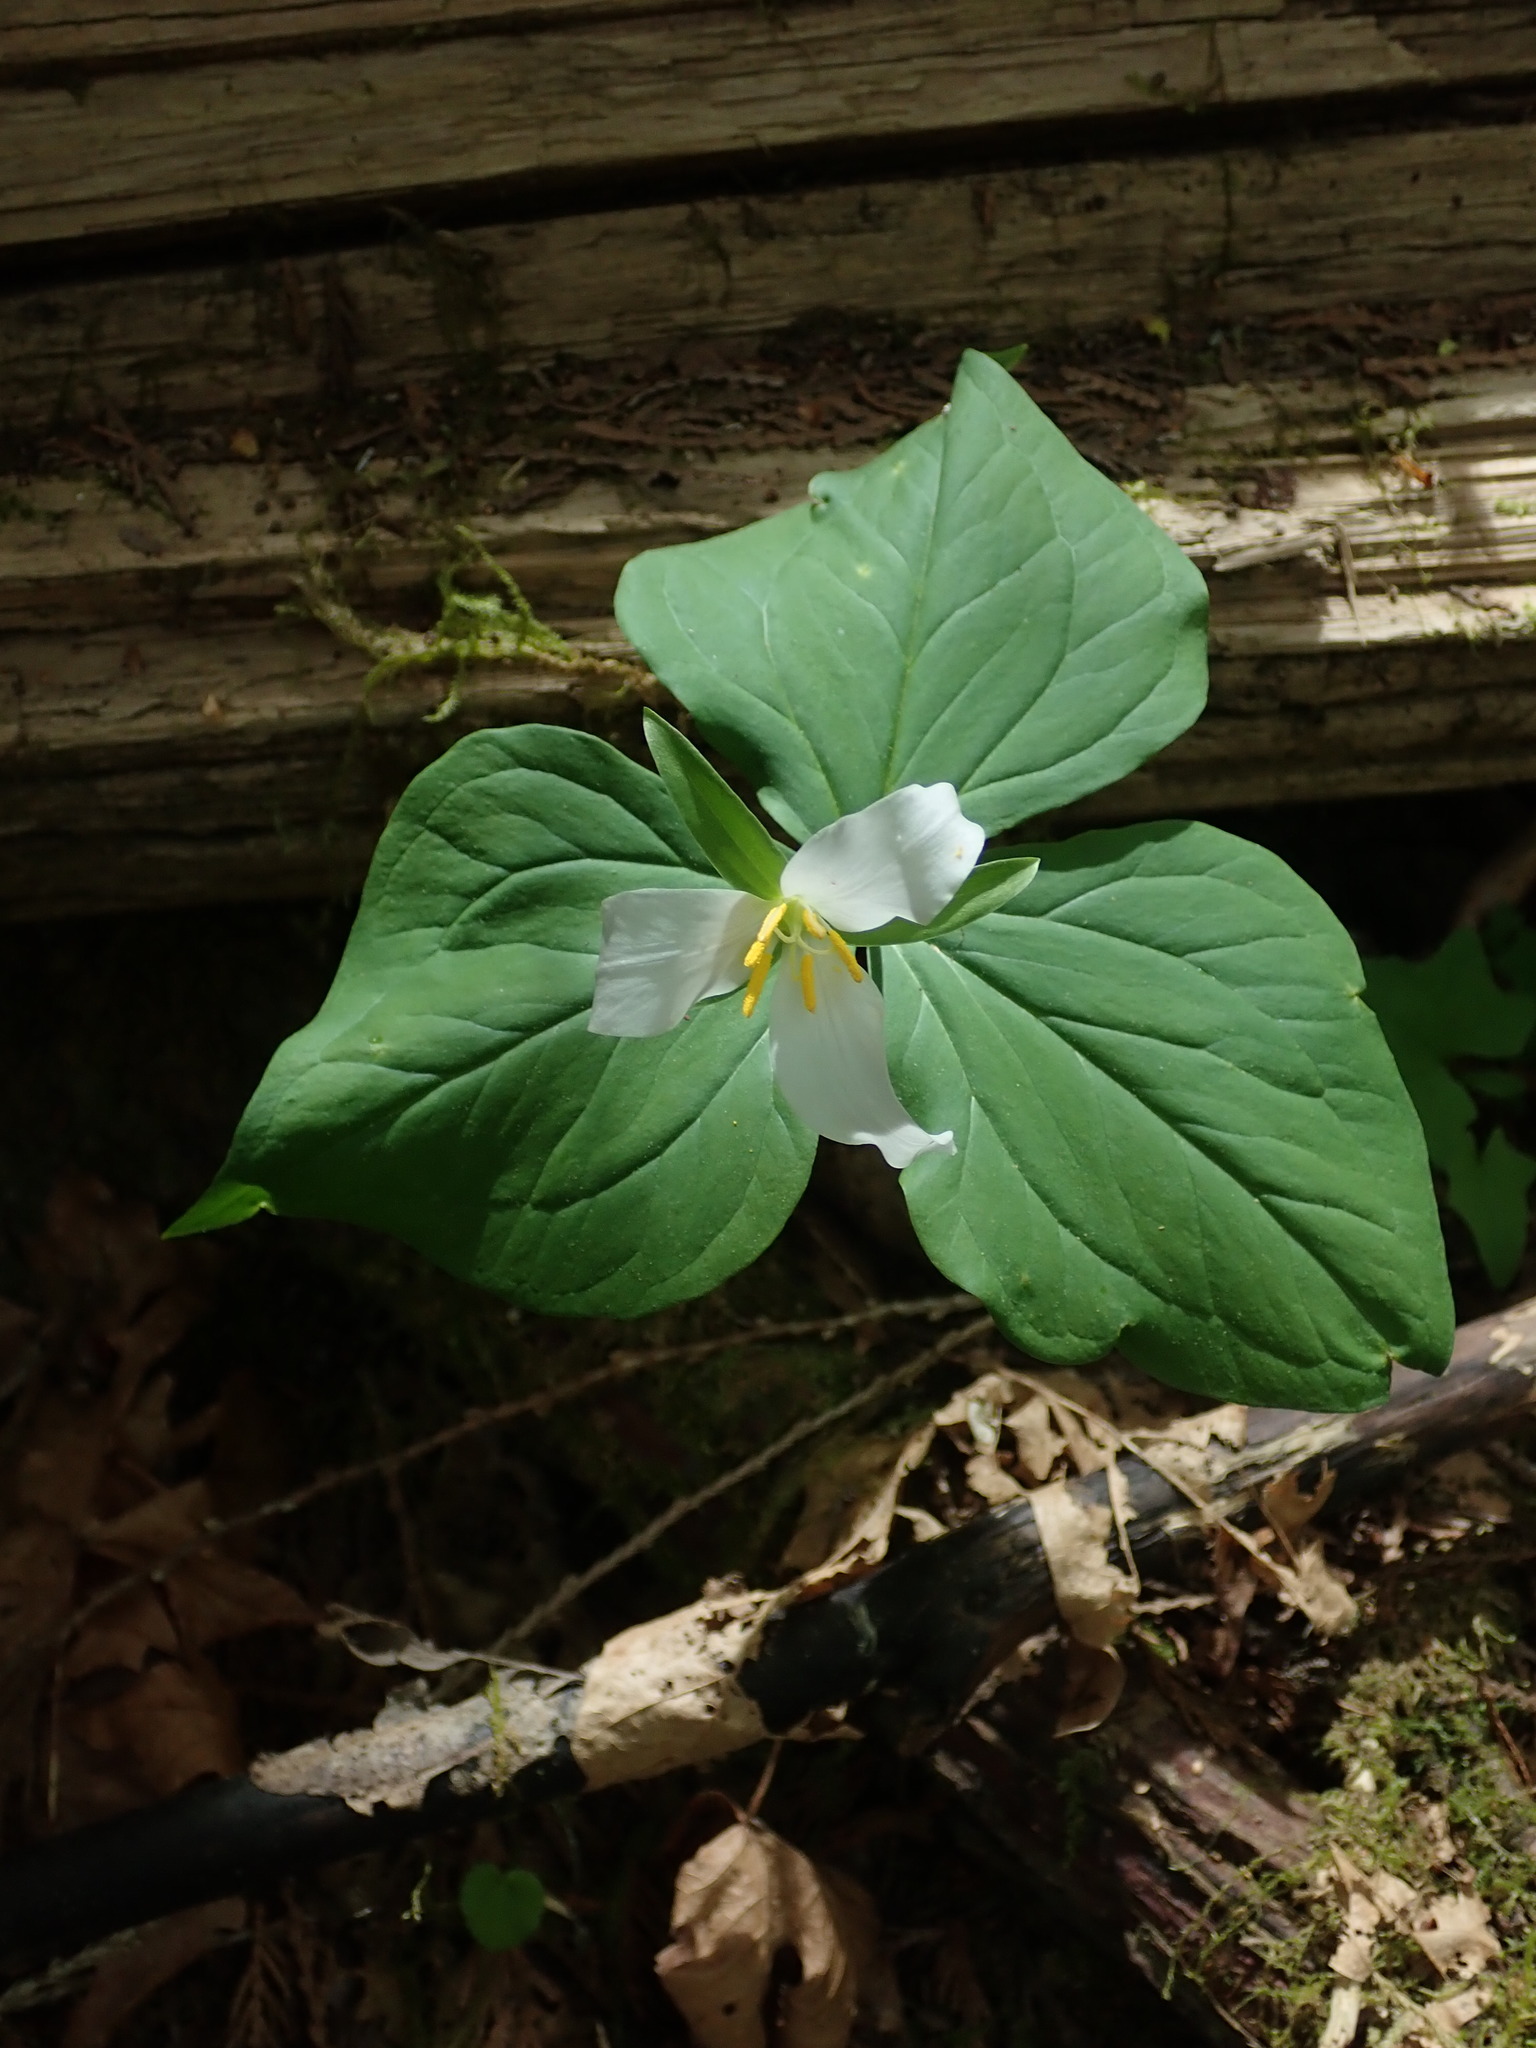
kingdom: Plantae
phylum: Tracheophyta
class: Liliopsida
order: Liliales
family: Melanthiaceae
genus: Trillium
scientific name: Trillium ovatum
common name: Pacific trillium
